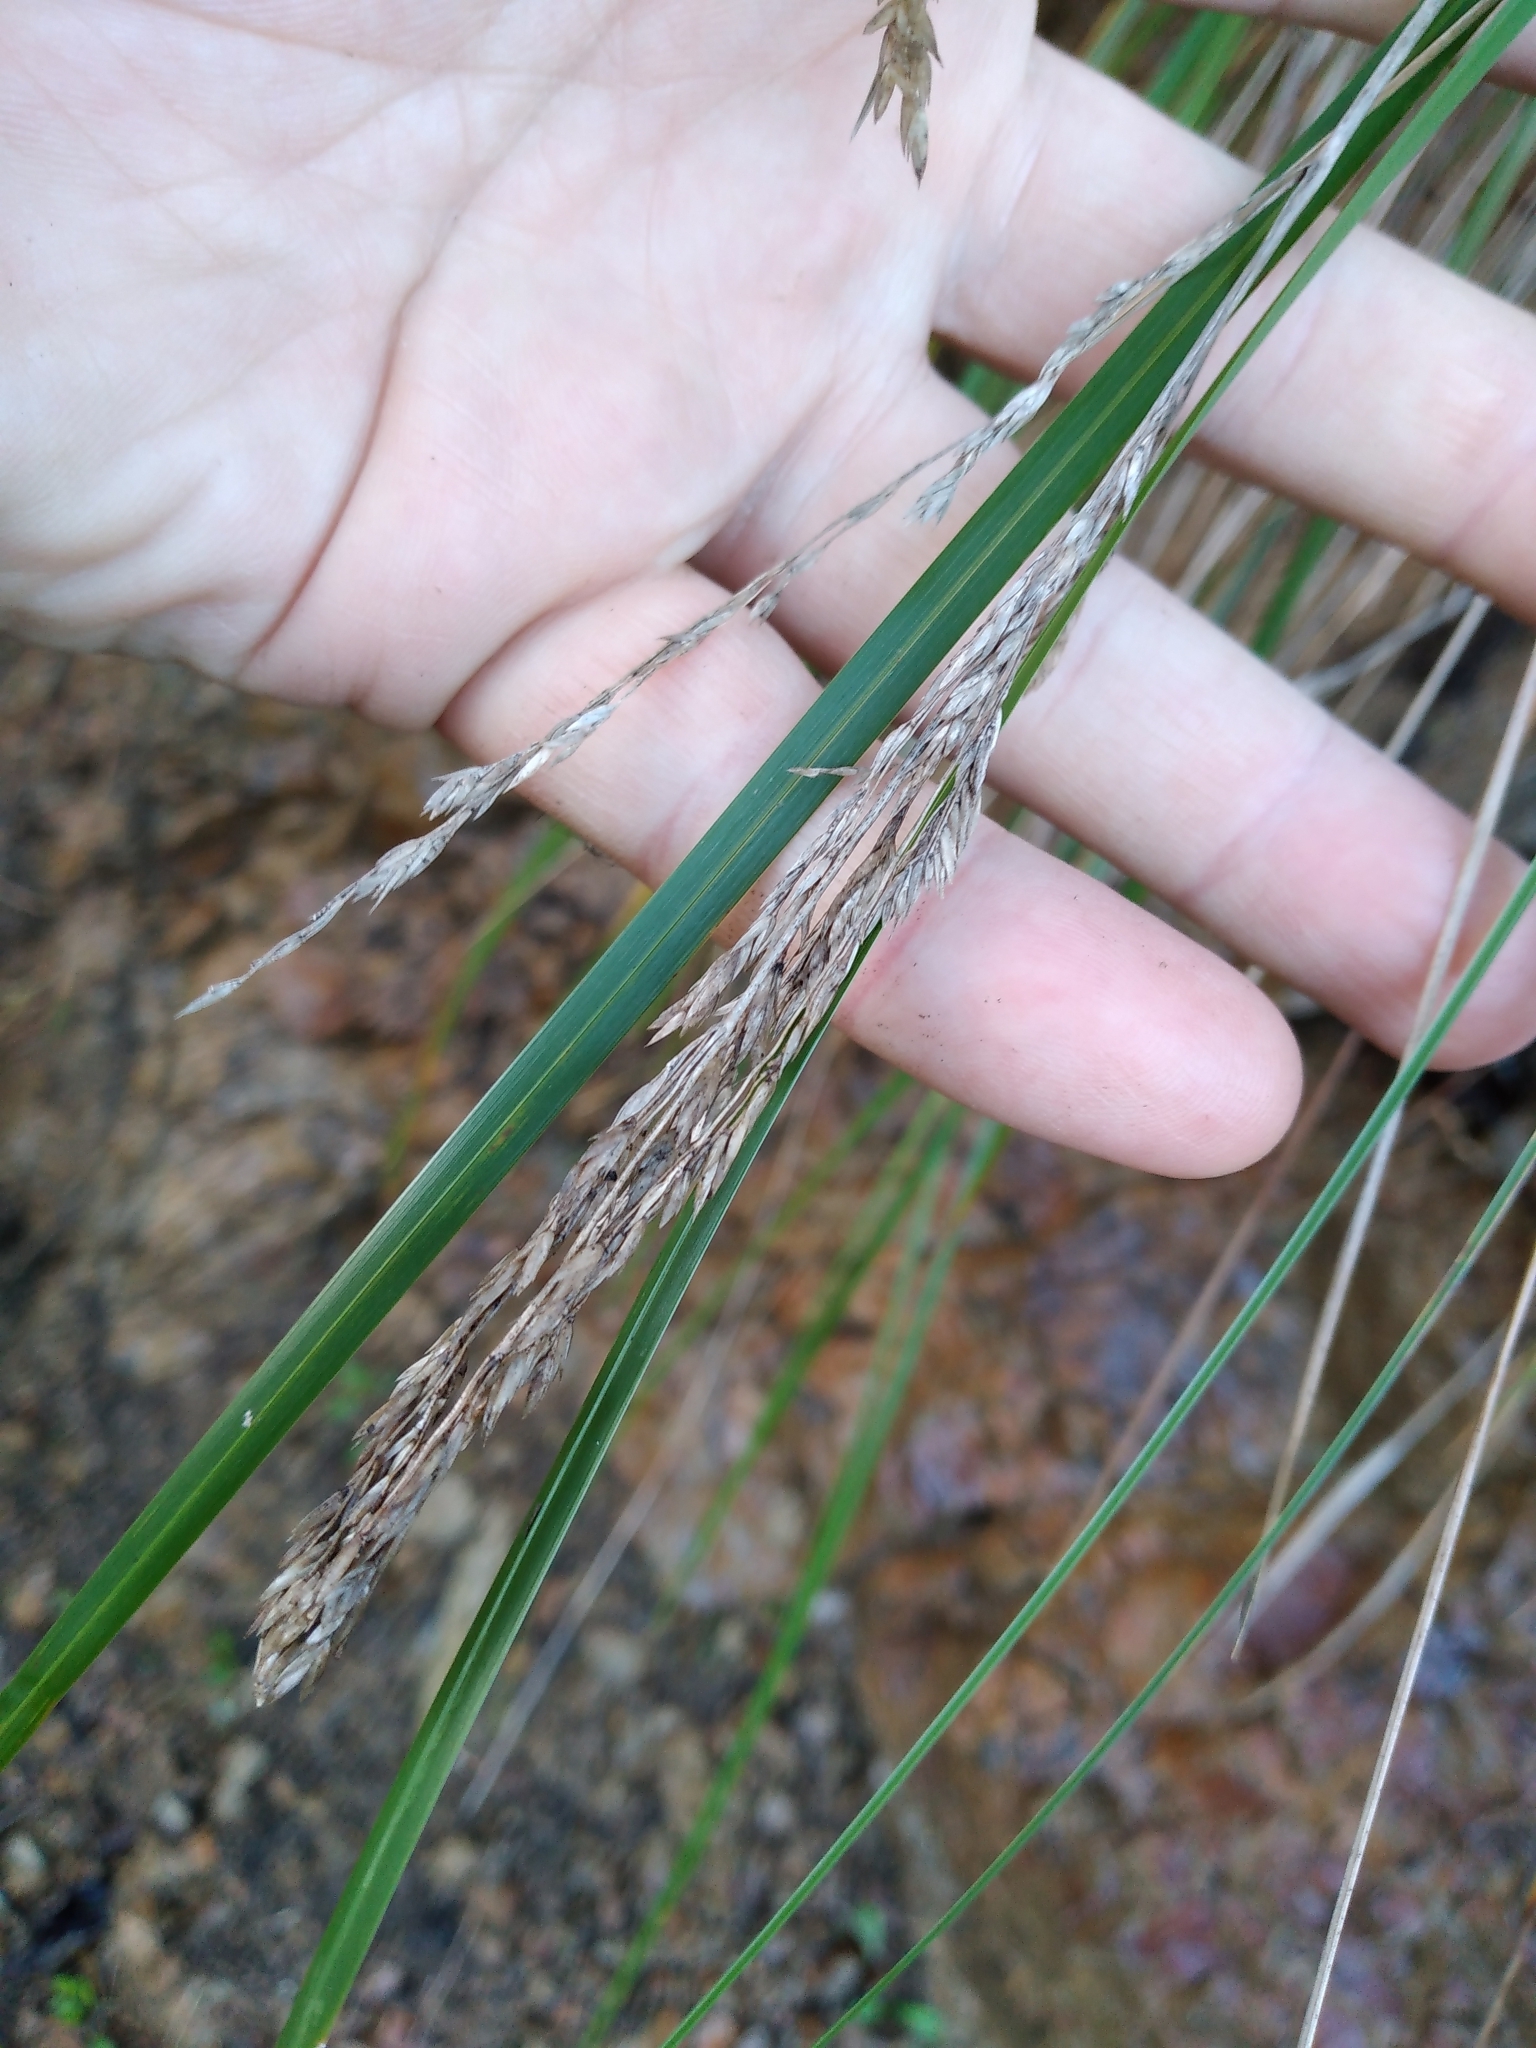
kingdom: Plantae
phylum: Tracheophyta
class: Liliopsida
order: Poales
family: Poaceae
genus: Poa
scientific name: Poa anceps
